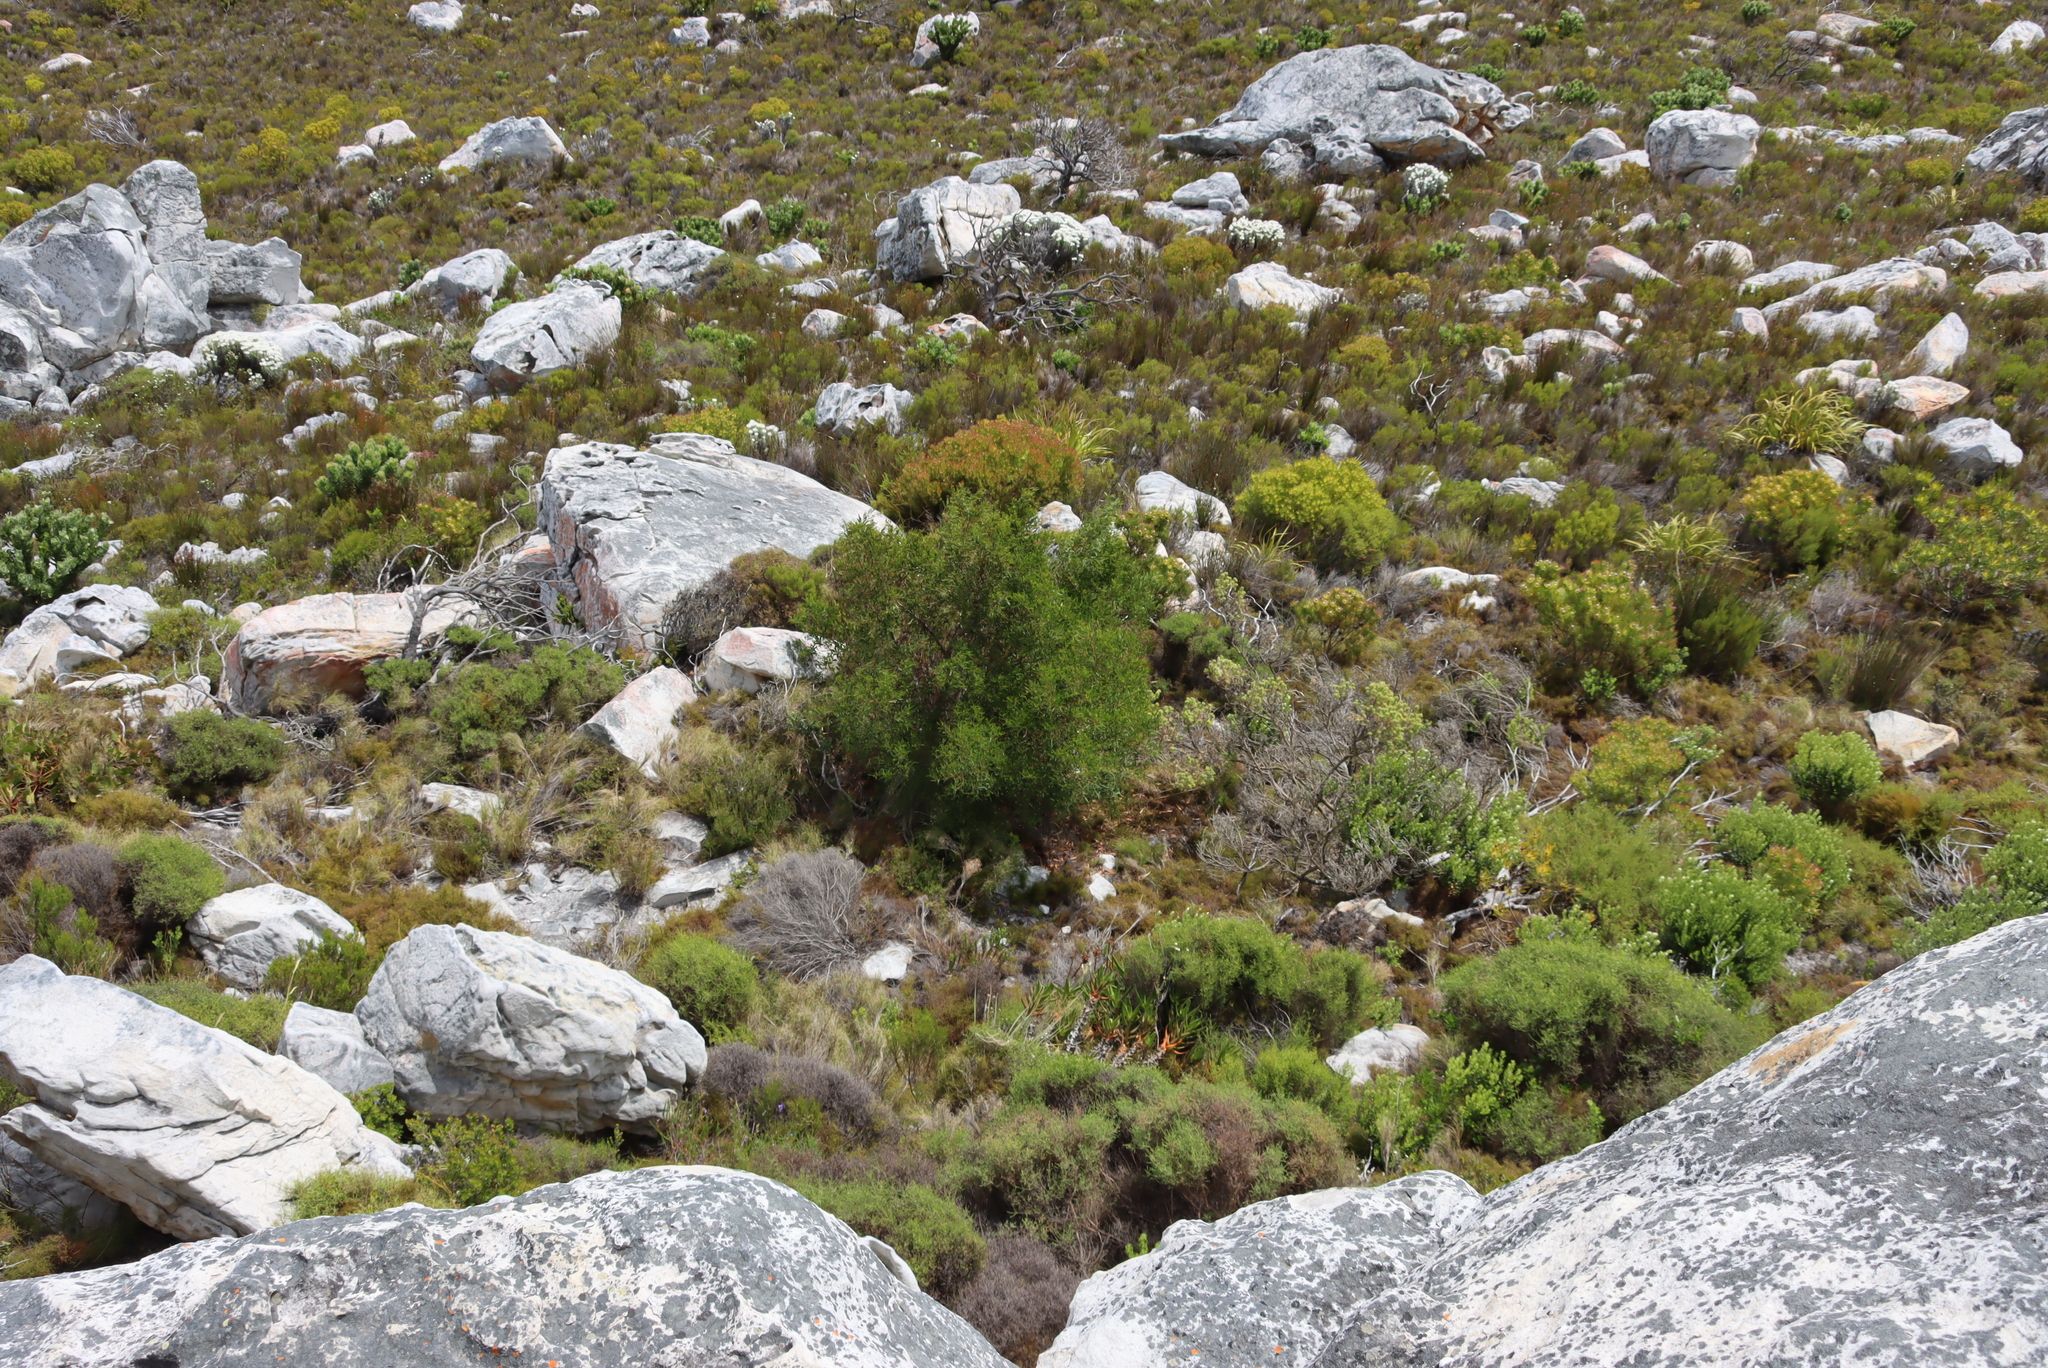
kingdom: Plantae
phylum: Tracheophyta
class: Magnoliopsida
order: Fabales
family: Fabaceae
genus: Acacia
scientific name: Acacia cyclops
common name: Coastal wattle
